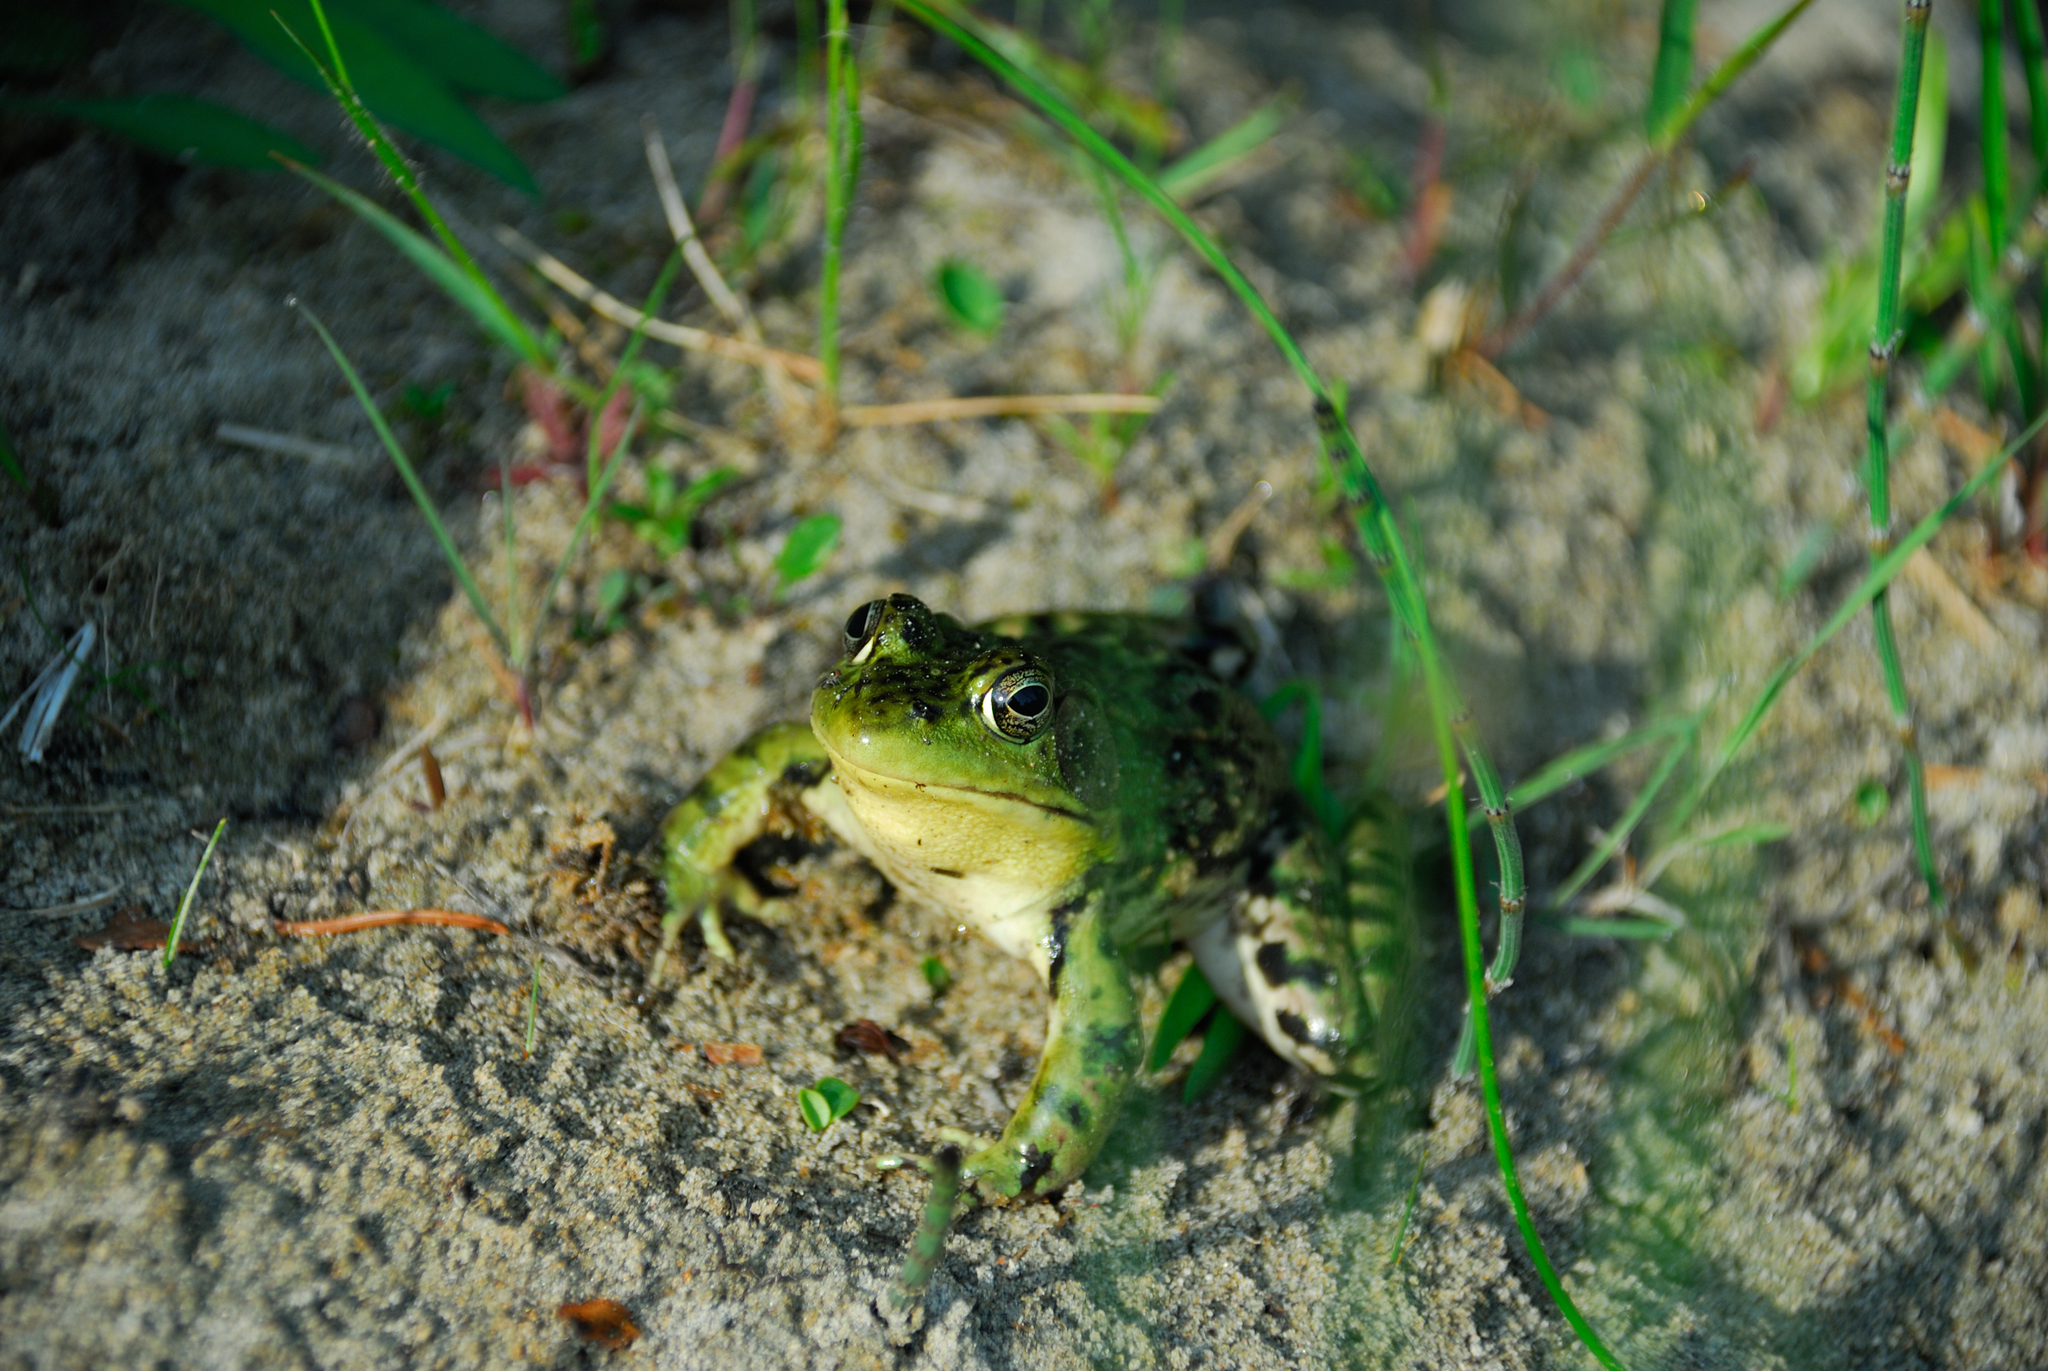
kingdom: Animalia
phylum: Chordata
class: Amphibia
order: Anura
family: Ranidae
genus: Lithobates
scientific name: Lithobates clamitans
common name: Green frog
